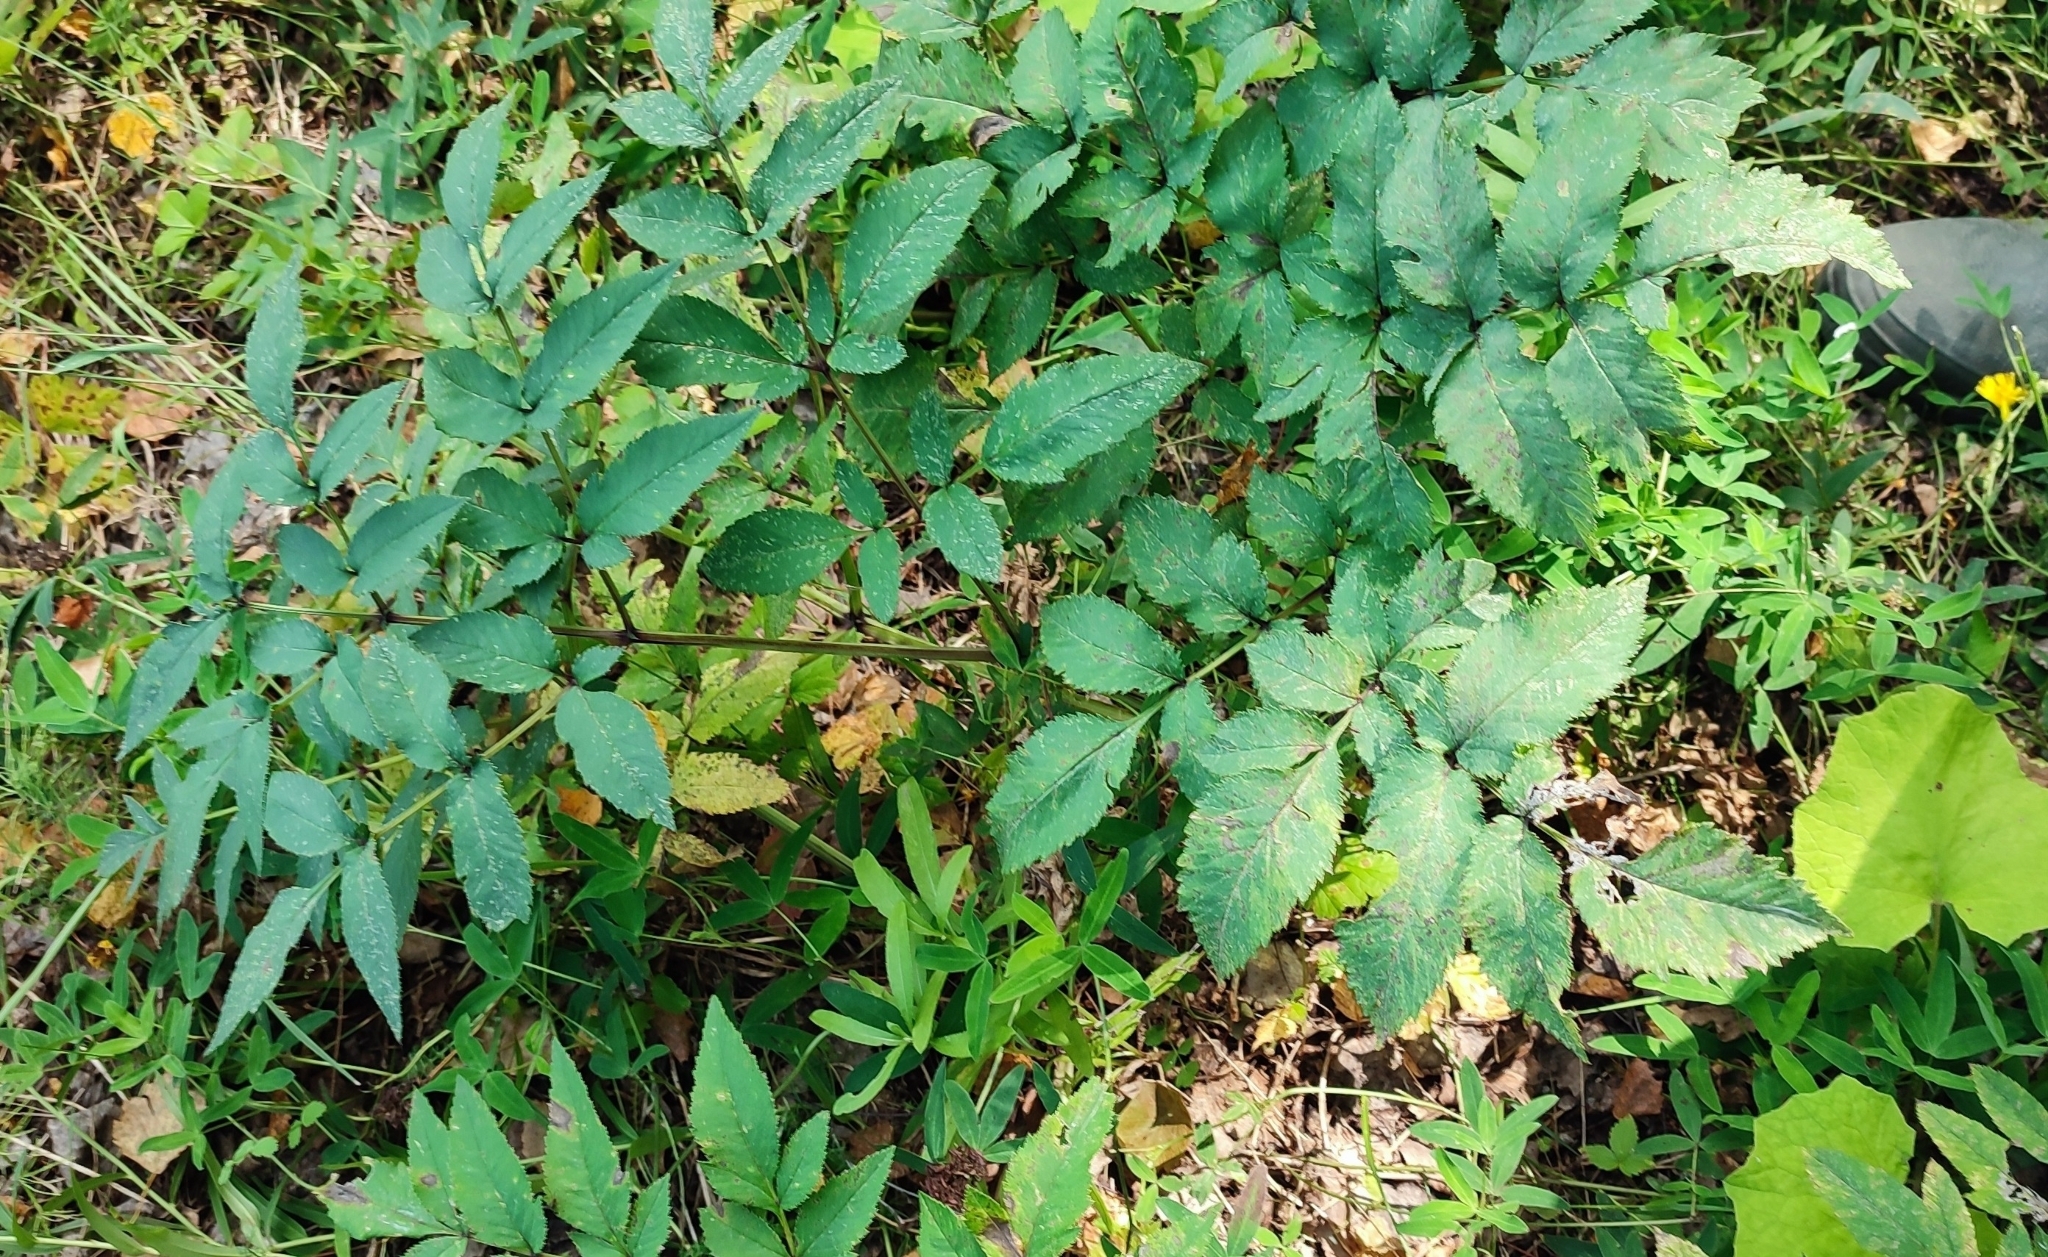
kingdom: Plantae
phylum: Tracheophyta
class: Magnoliopsida
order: Apiales
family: Apiaceae
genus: Angelica
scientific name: Angelica decurrens
